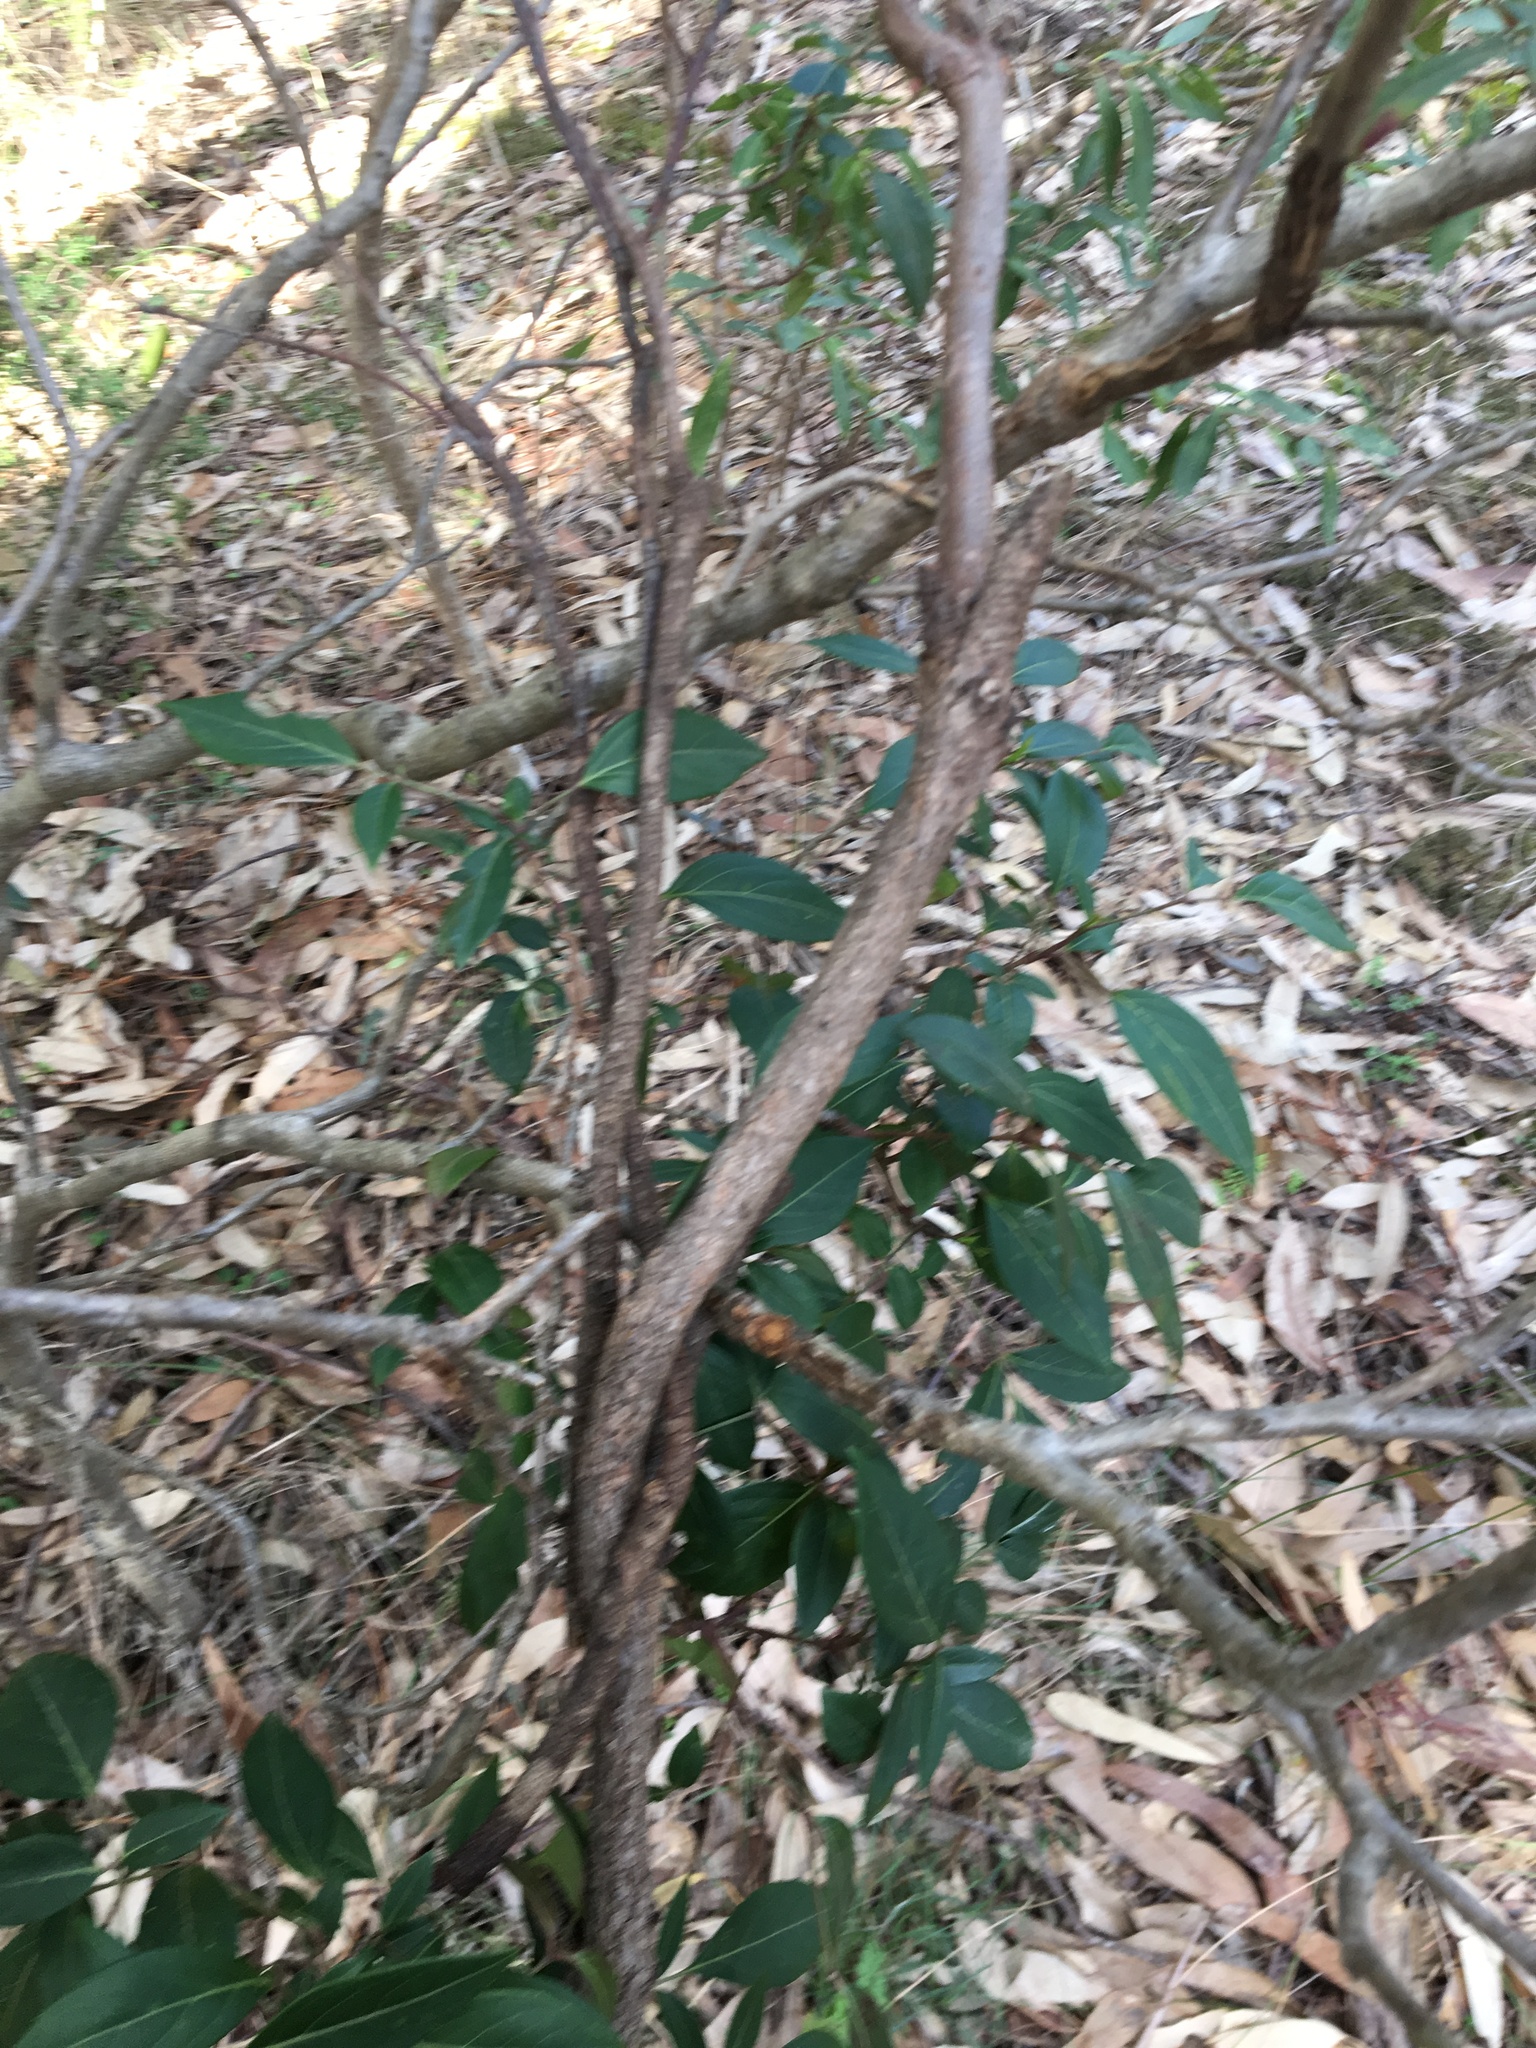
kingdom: Plantae
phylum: Tracheophyta
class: Magnoliopsida
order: Apiales
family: Araliaceae
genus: Polyscias
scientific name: Polyscias sambucifolia
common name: Elderberry-ash
